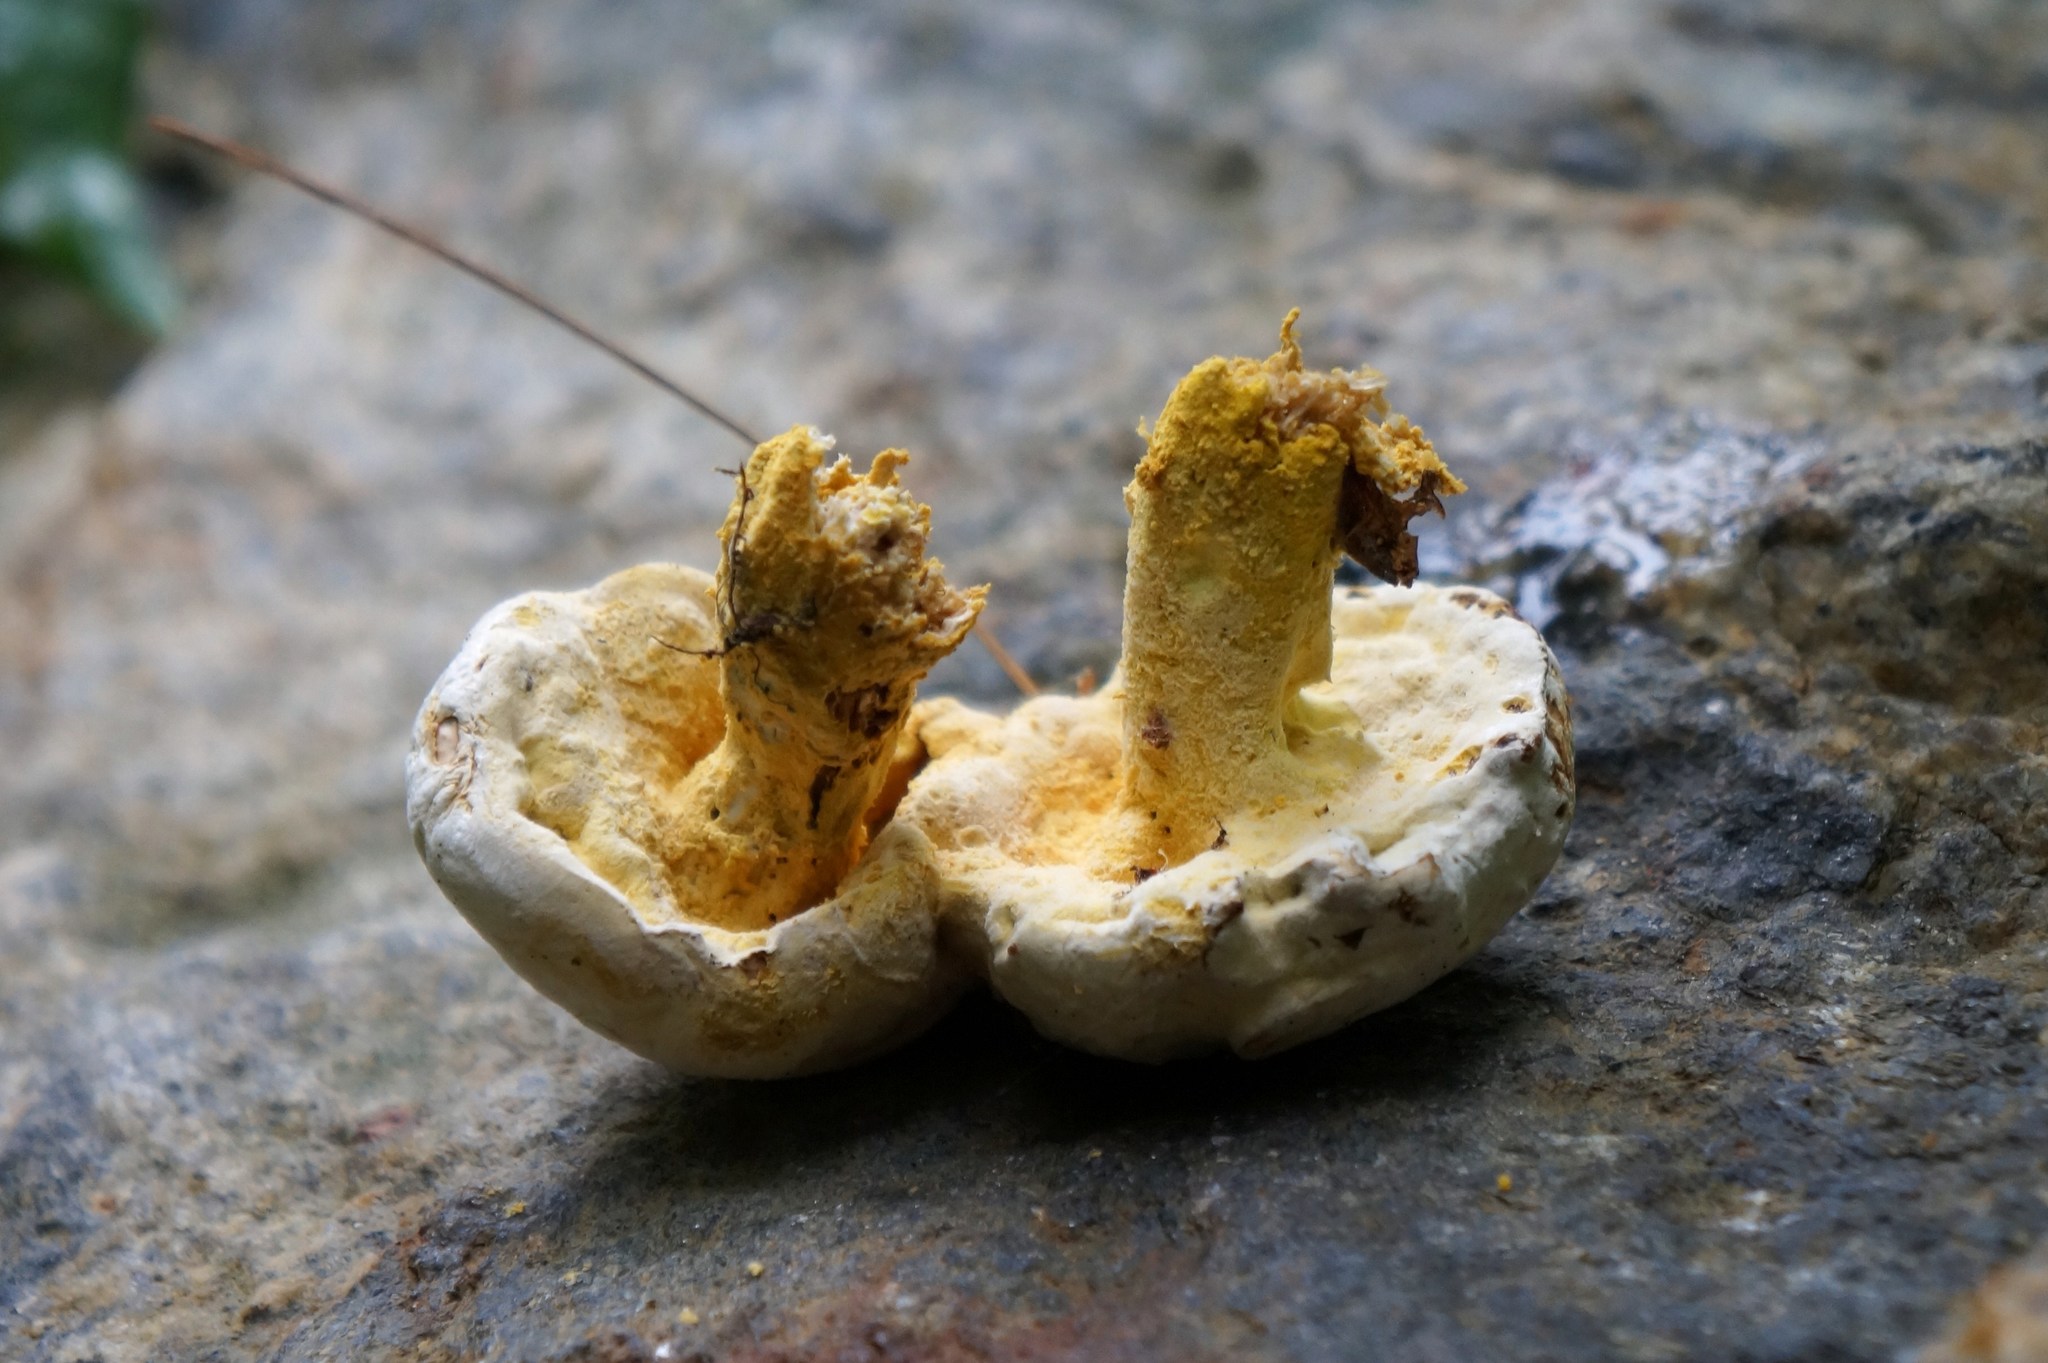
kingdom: Fungi
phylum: Ascomycota
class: Sordariomycetes
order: Hypocreales
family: Hypocreaceae
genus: Hypomyces
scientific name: Hypomyces chrysospermus
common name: Bolete mould
